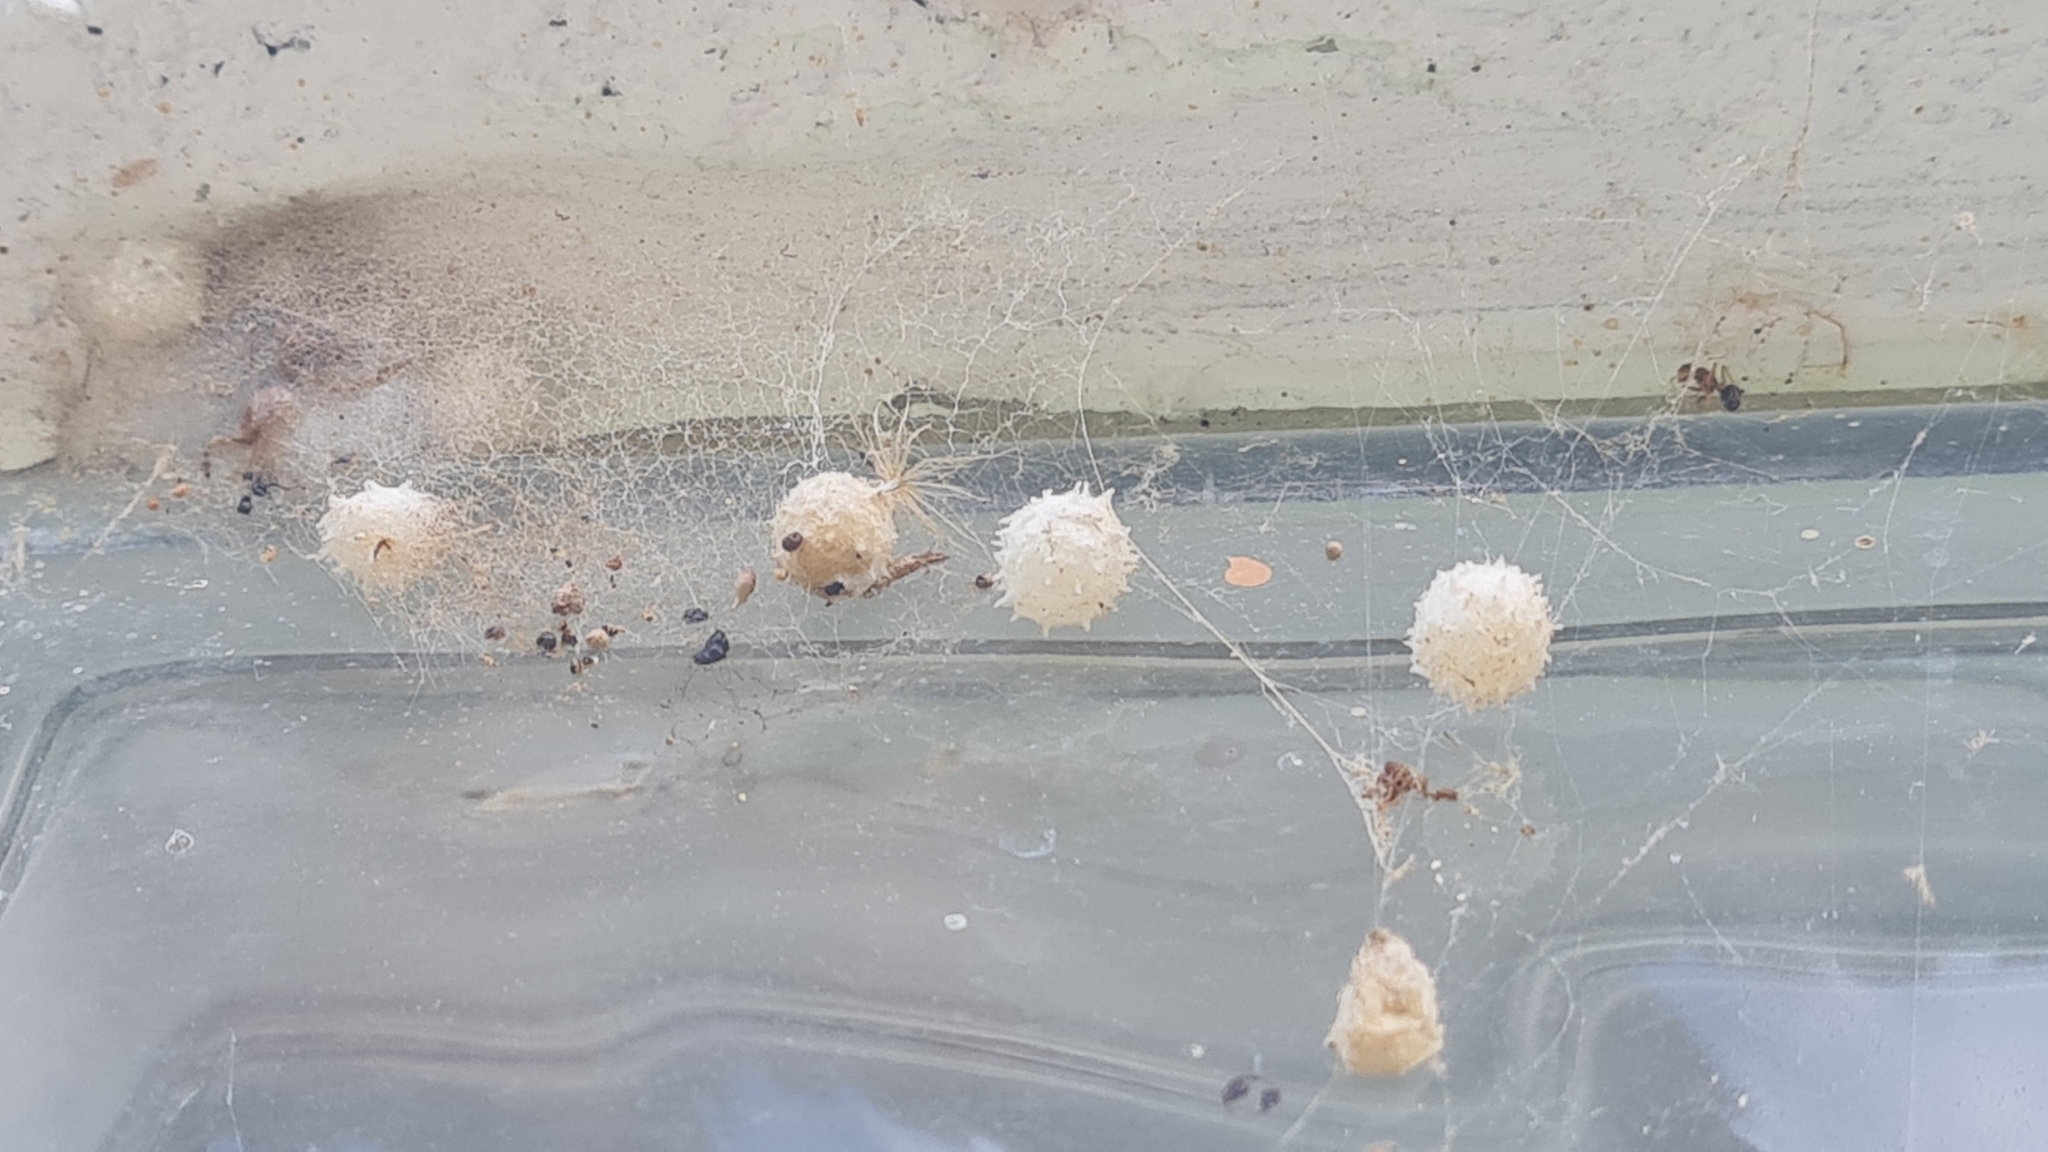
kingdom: Animalia
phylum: Arthropoda
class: Arachnida
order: Araneae
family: Theridiidae
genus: Latrodectus
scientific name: Latrodectus geometricus
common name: Brown widow spider
